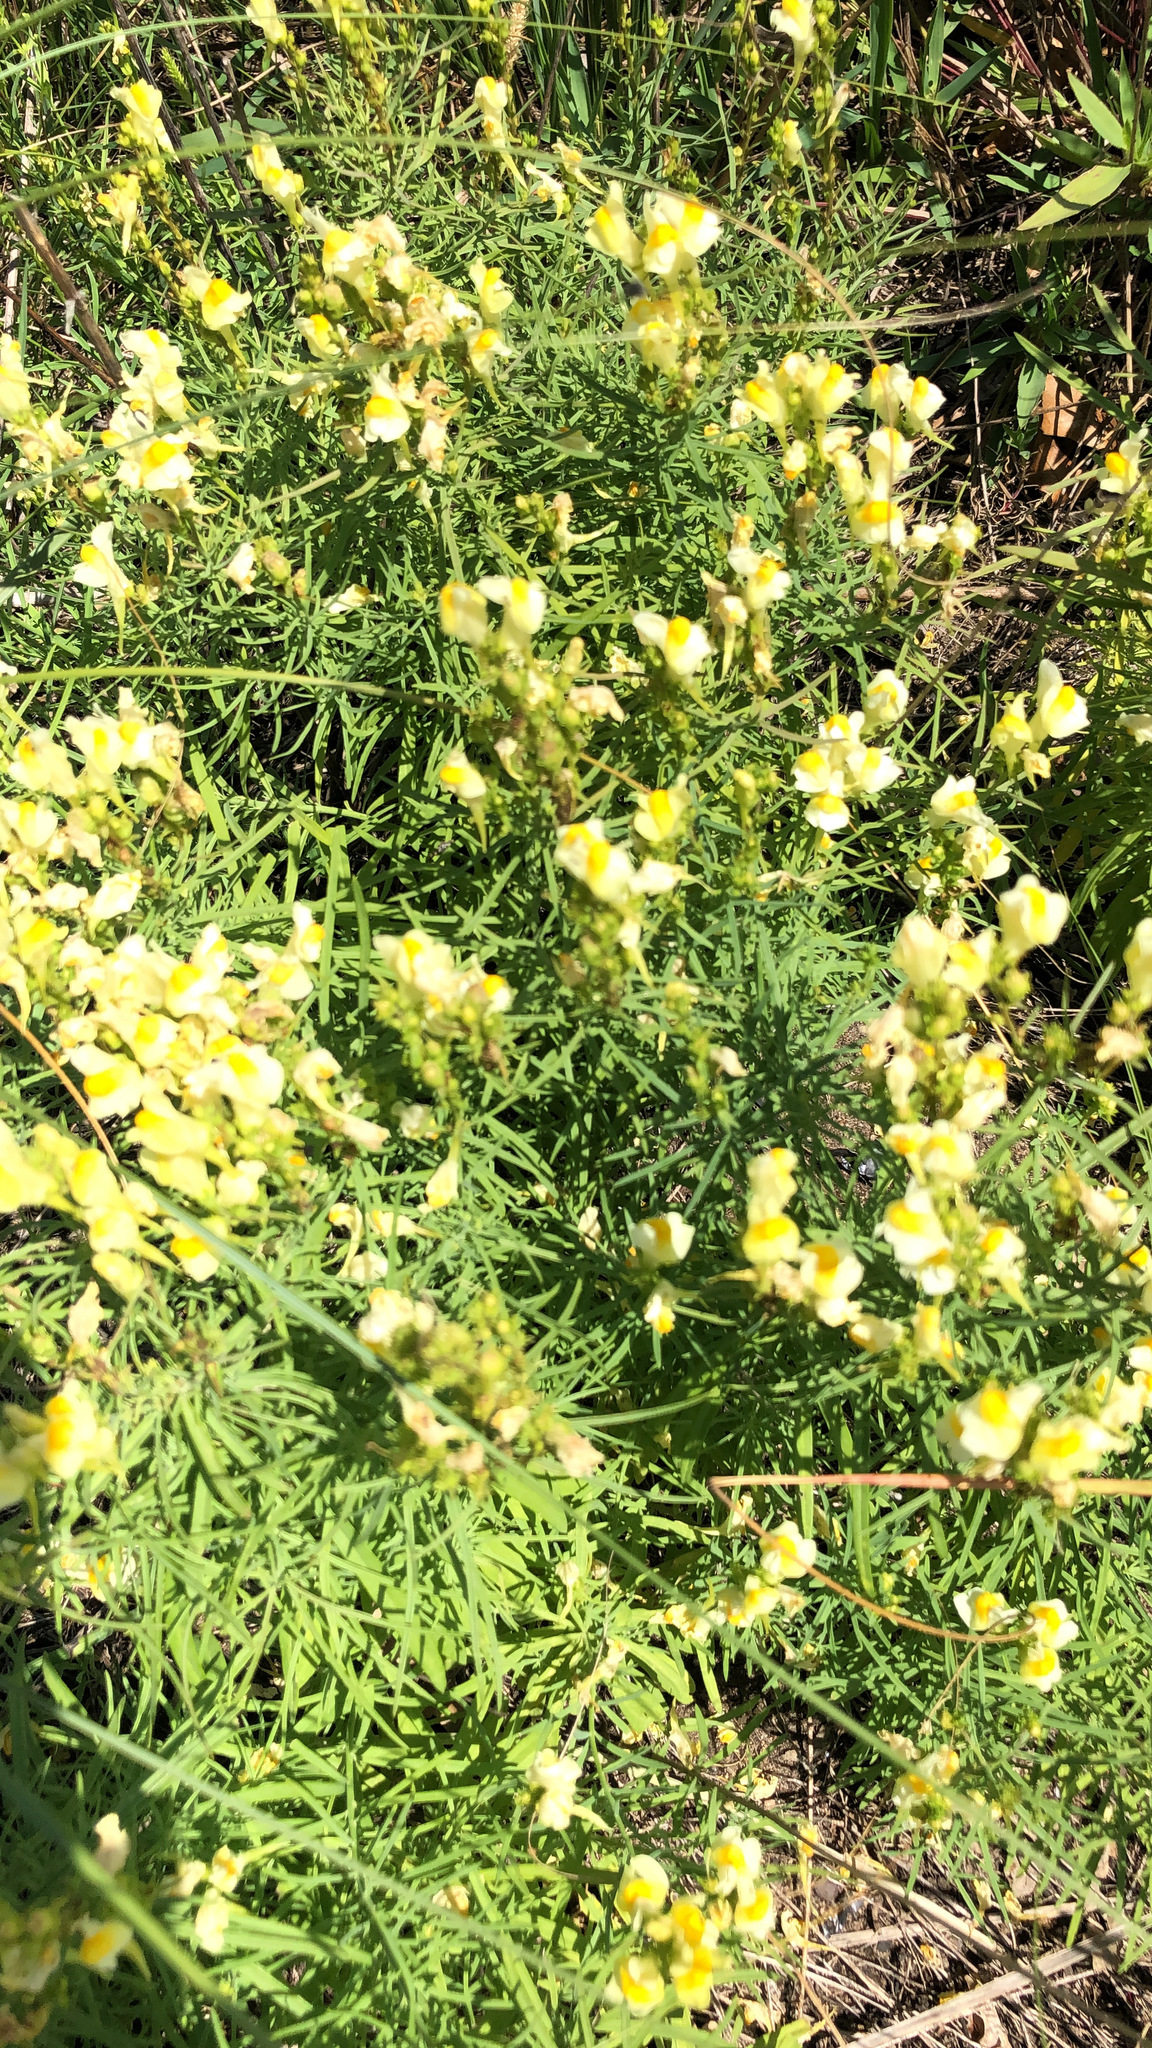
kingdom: Plantae
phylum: Tracheophyta
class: Magnoliopsida
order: Lamiales
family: Plantaginaceae
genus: Linaria
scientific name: Linaria vulgaris
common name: Butter and eggs
